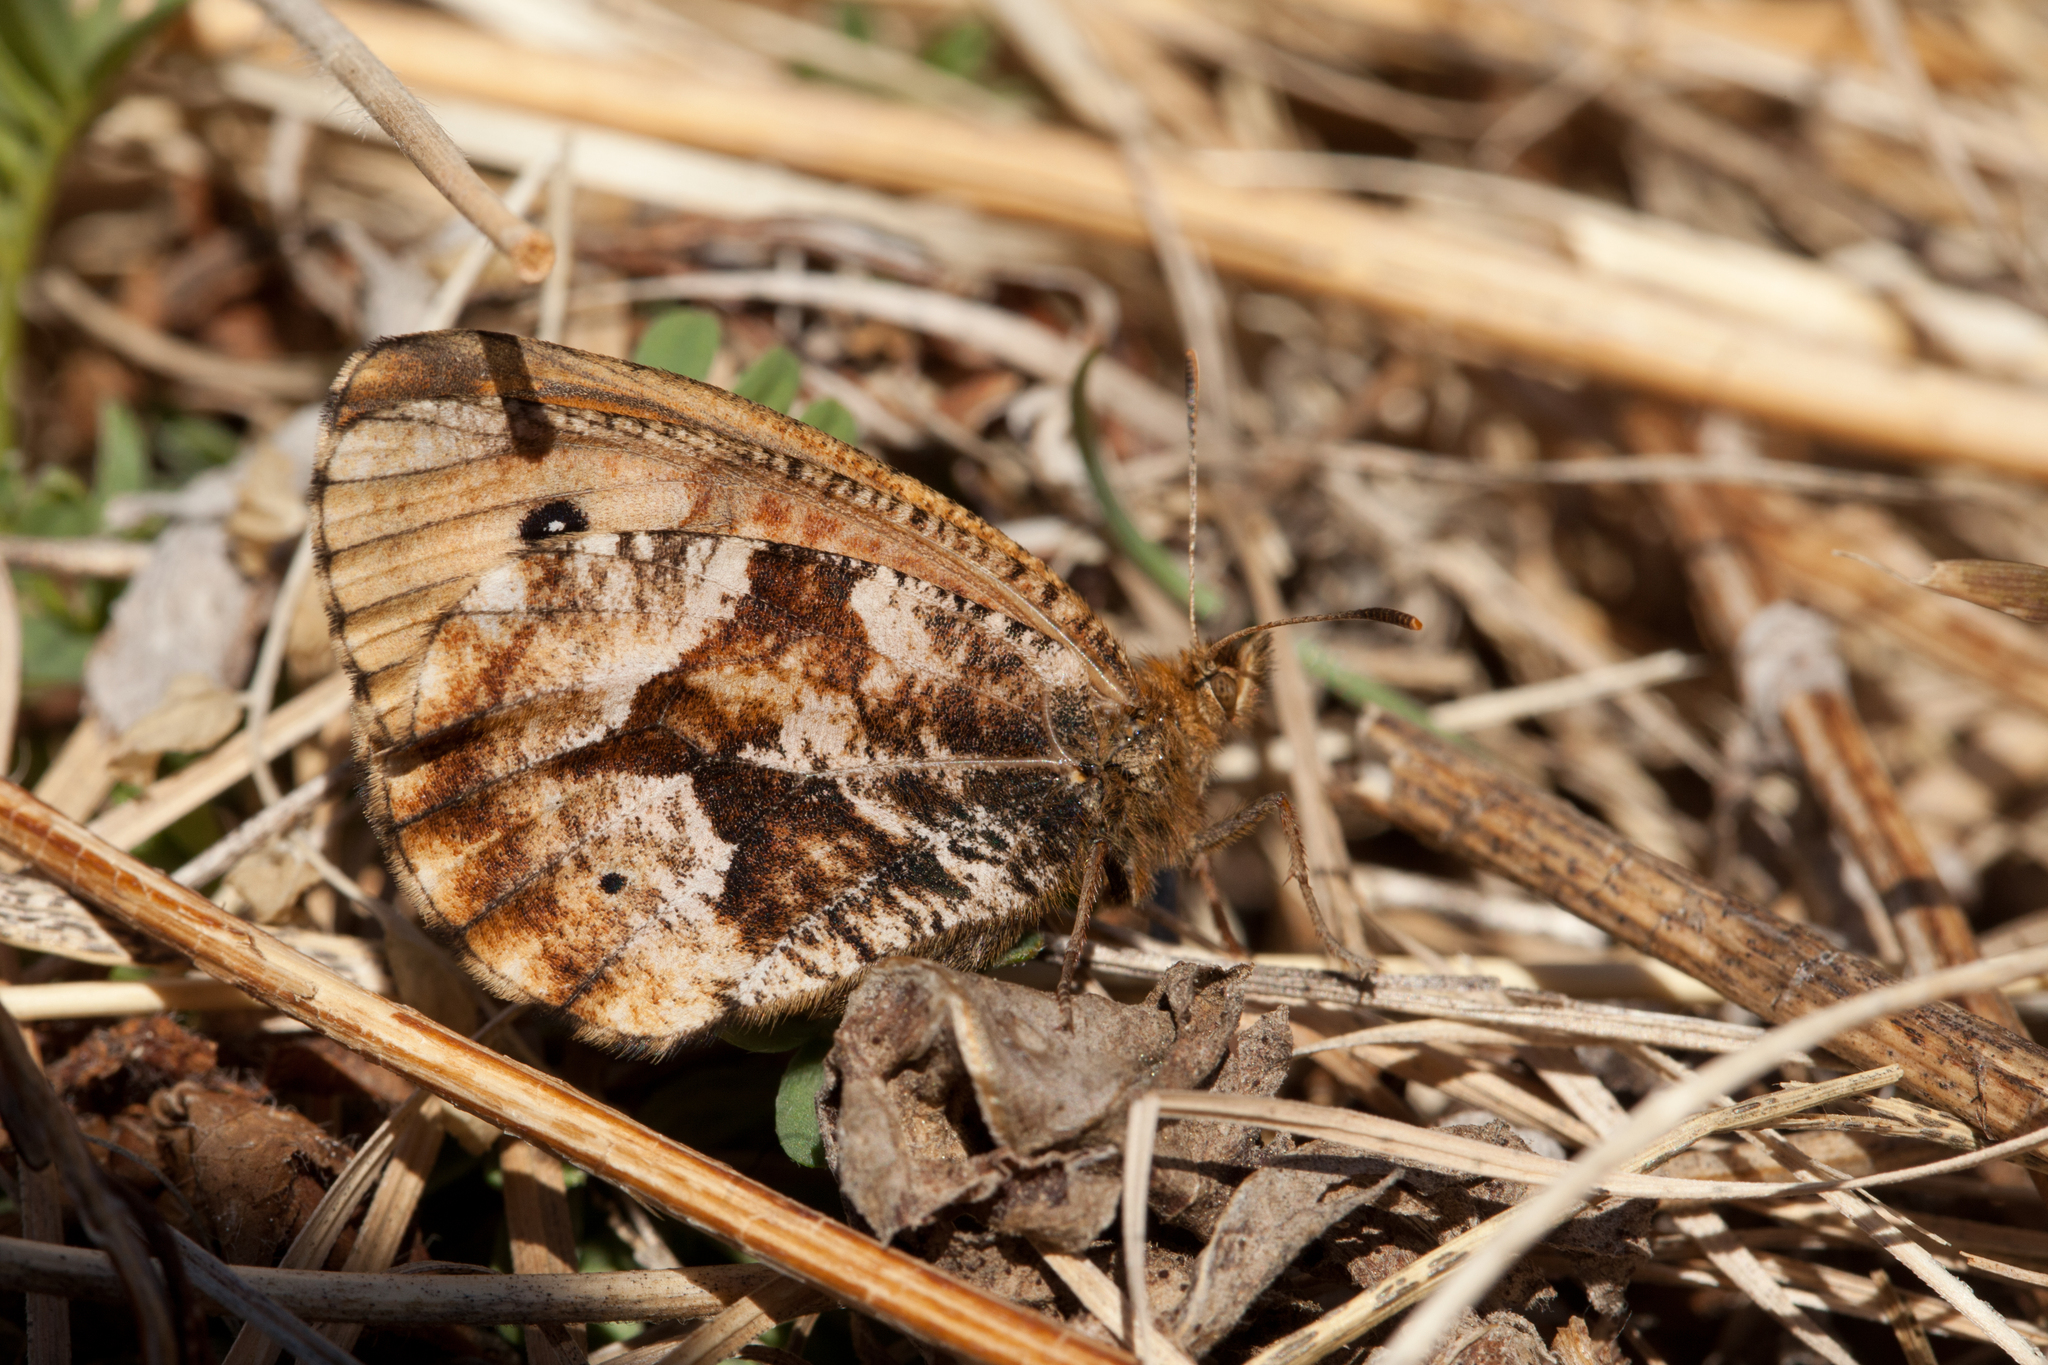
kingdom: Animalia
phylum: Arthropoda
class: Insecta
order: Lepidoptera
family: Nymphalidae
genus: Oeneis
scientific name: Oeneis urda
